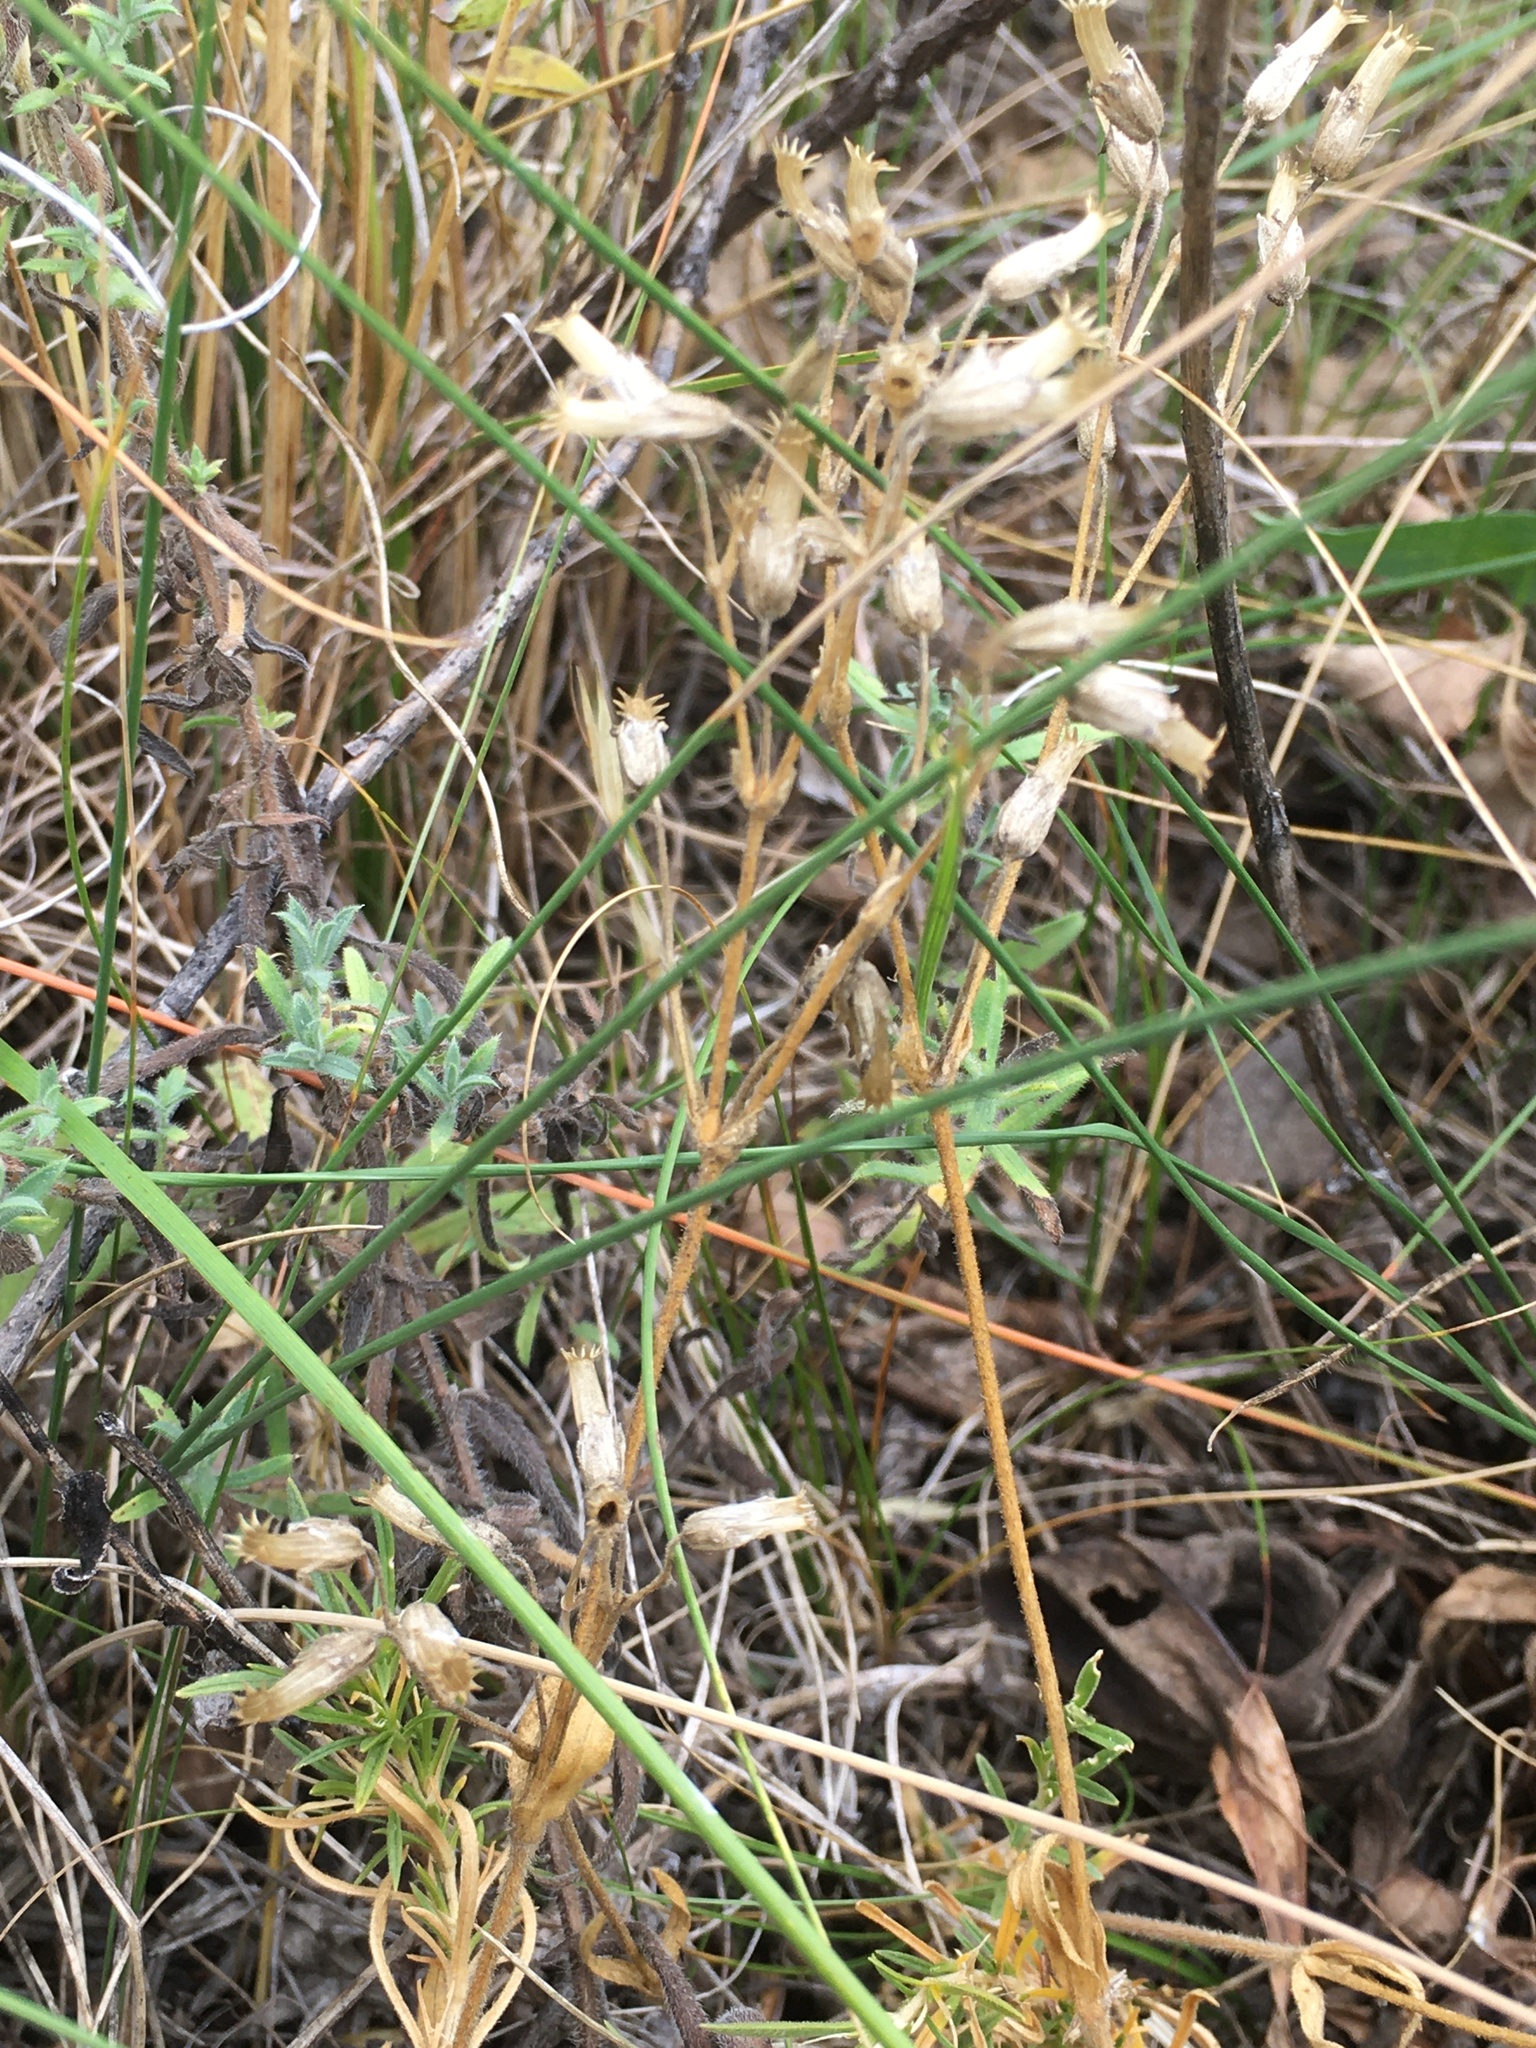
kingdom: Plantae
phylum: Tracheophyta
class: Magnoliopsida
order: Caryophyllales
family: Caryophyllaceae
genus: Cerastium
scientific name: Cerastium arvense
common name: Field mouse-ear
